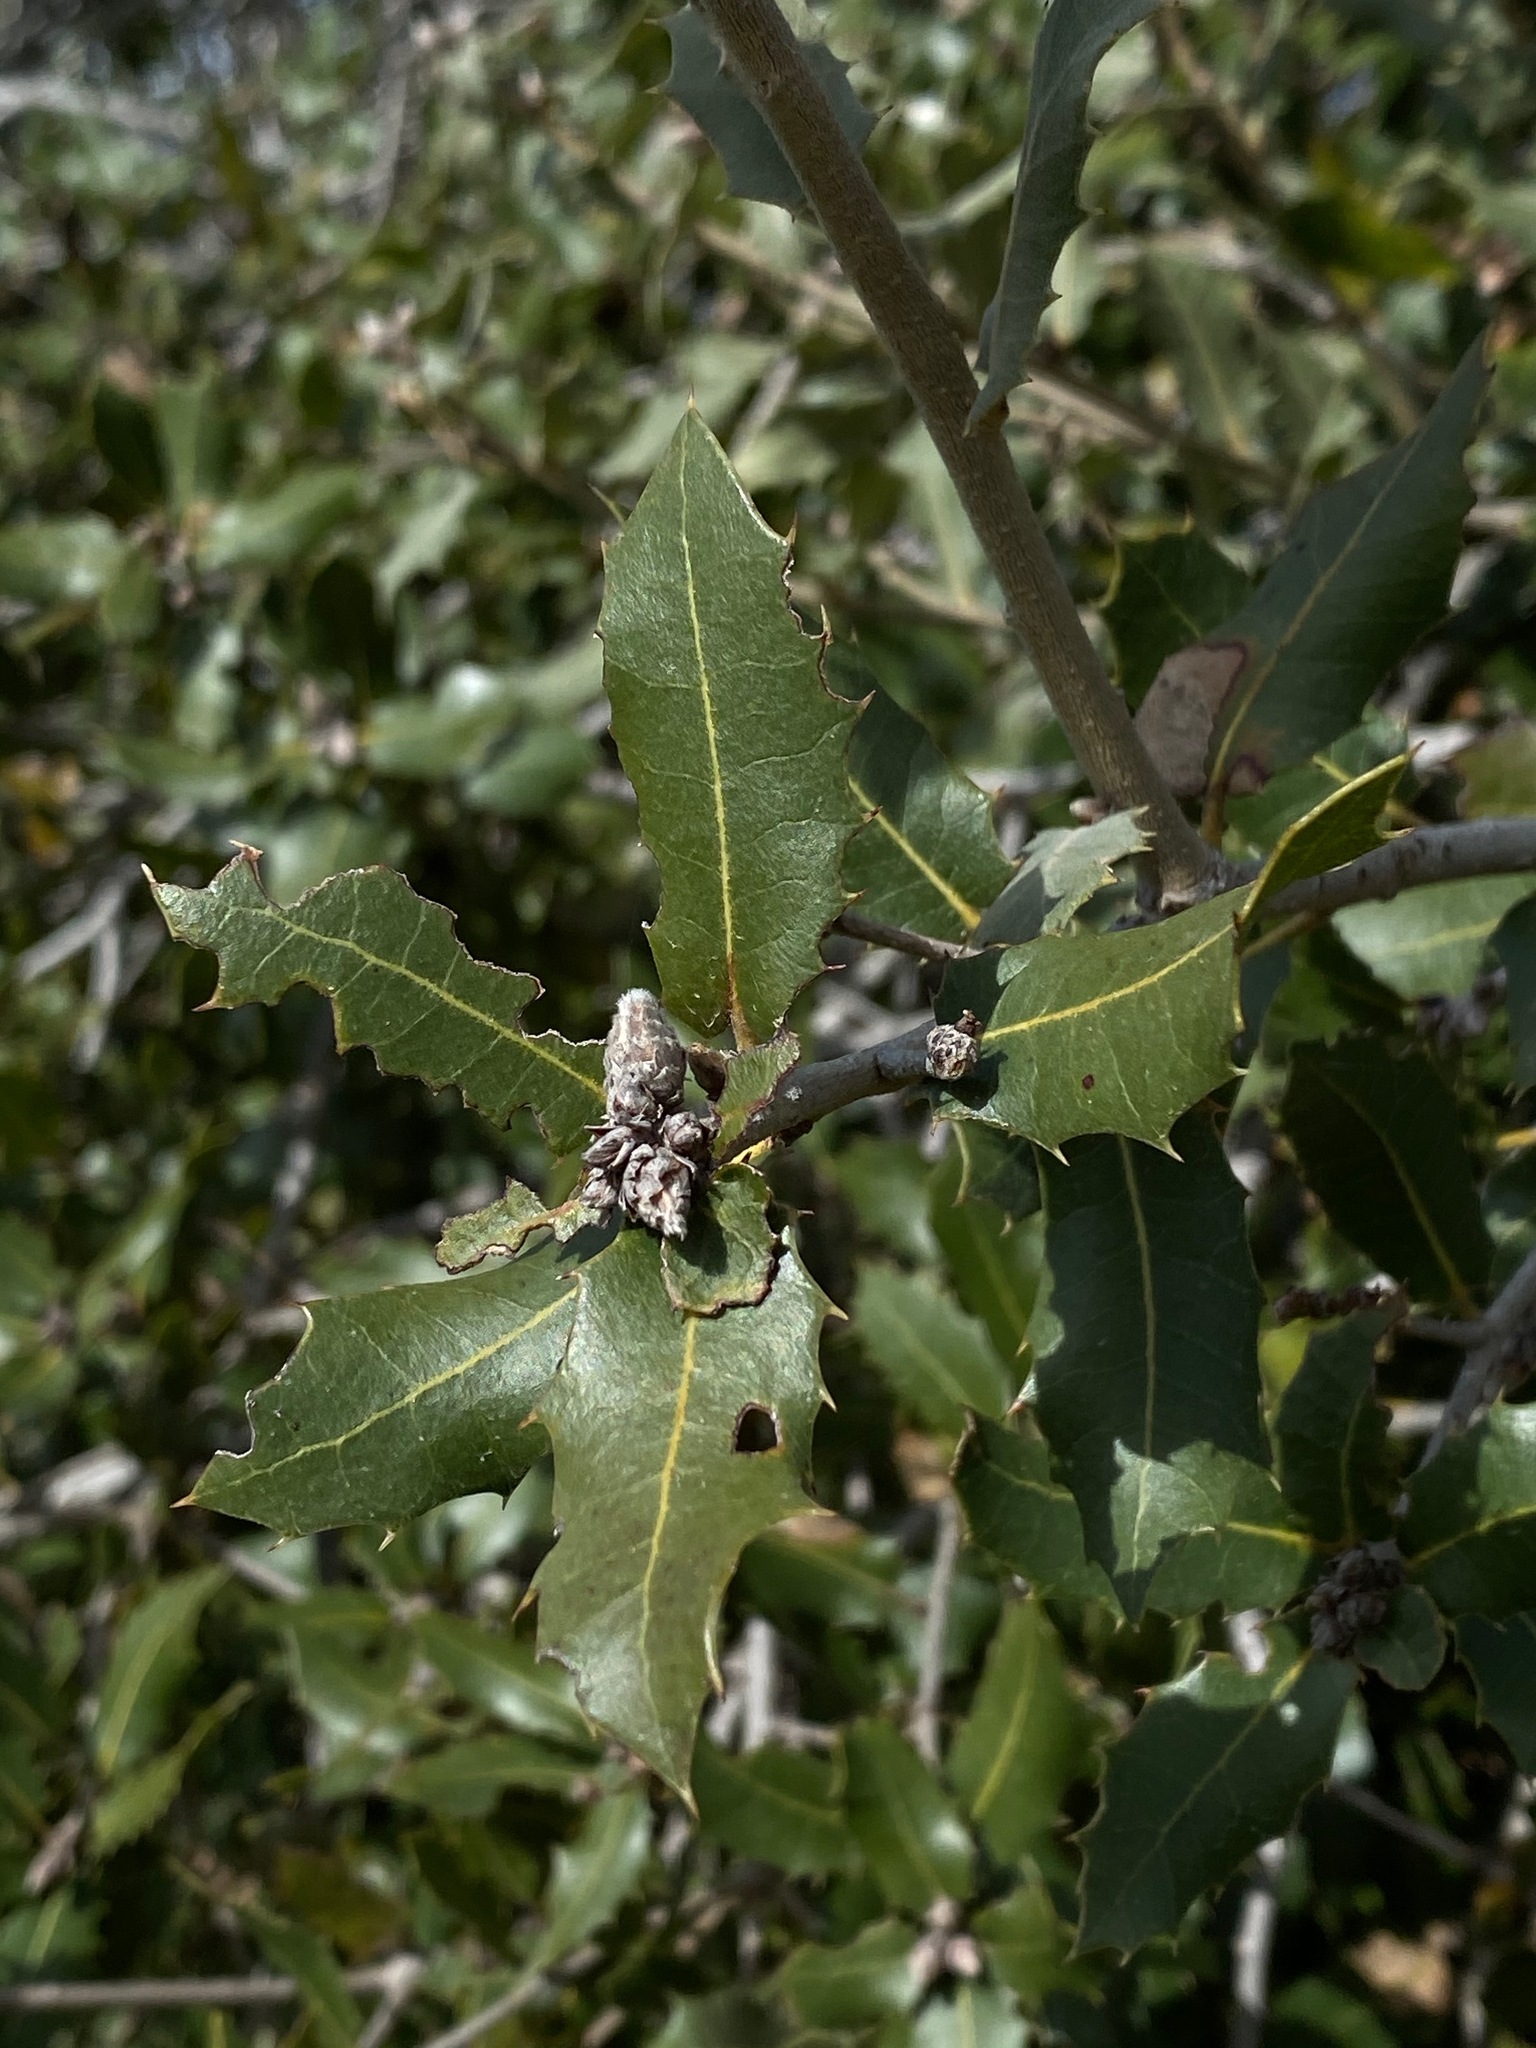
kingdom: Plantae
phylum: Tracheophyta
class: Magnoliopsida
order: Fagales
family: Fagaceae
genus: Quercus
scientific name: Quercus coccifera
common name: Kermes oak
